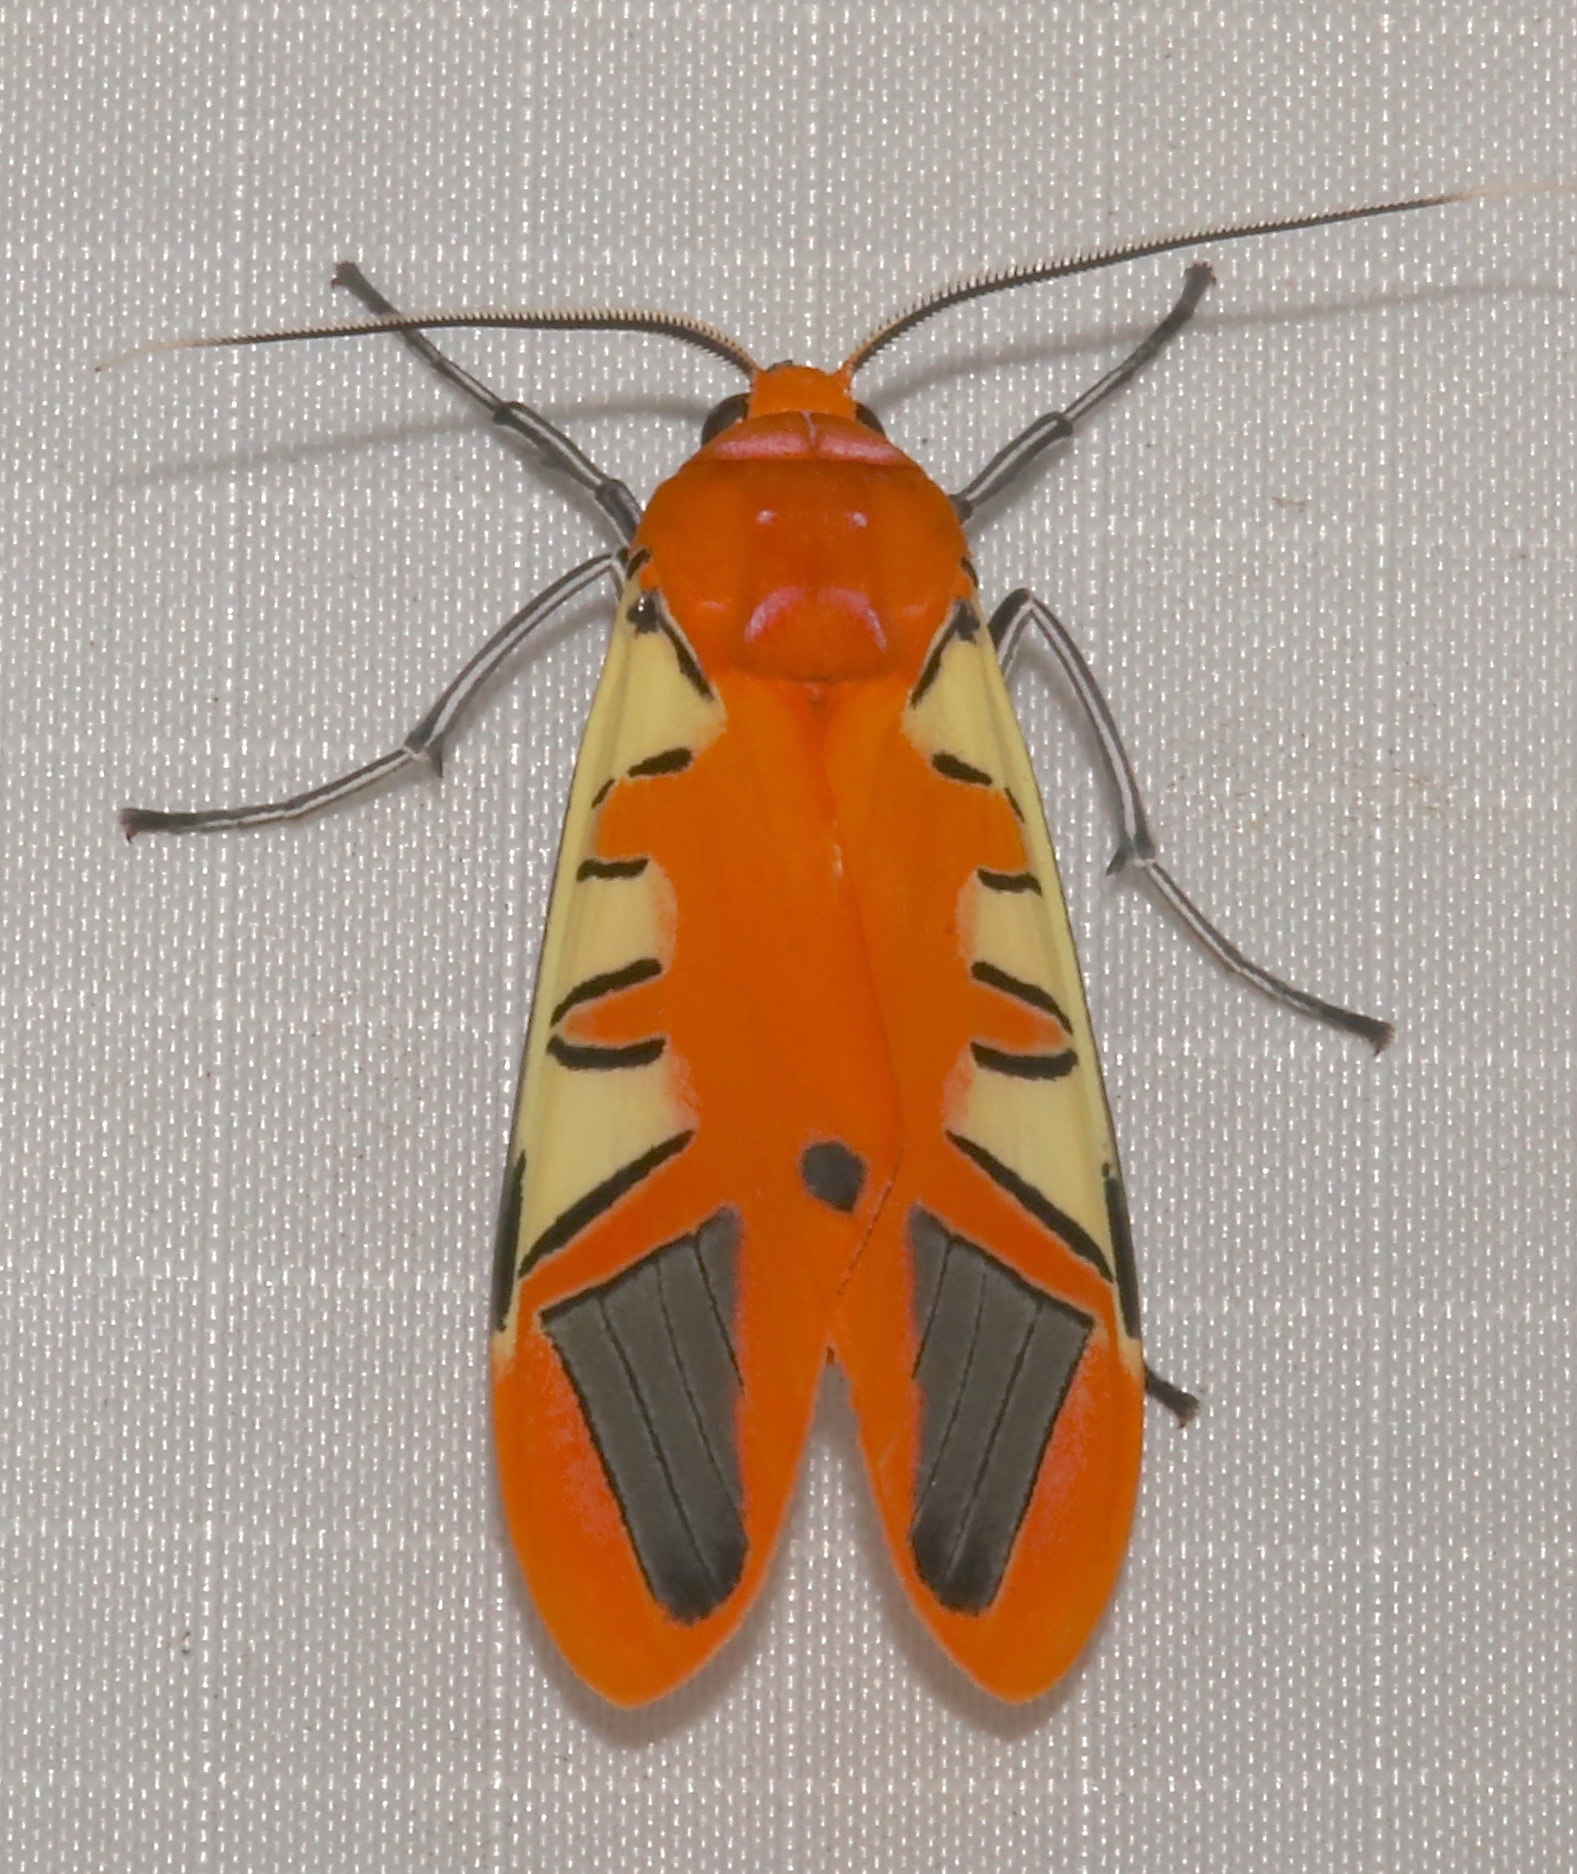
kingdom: Animalia
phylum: Arthropoda
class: Insecta
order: Lepidoptera
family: Erebidae
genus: Gorgonidia
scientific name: Gorgonidia buckleyi
